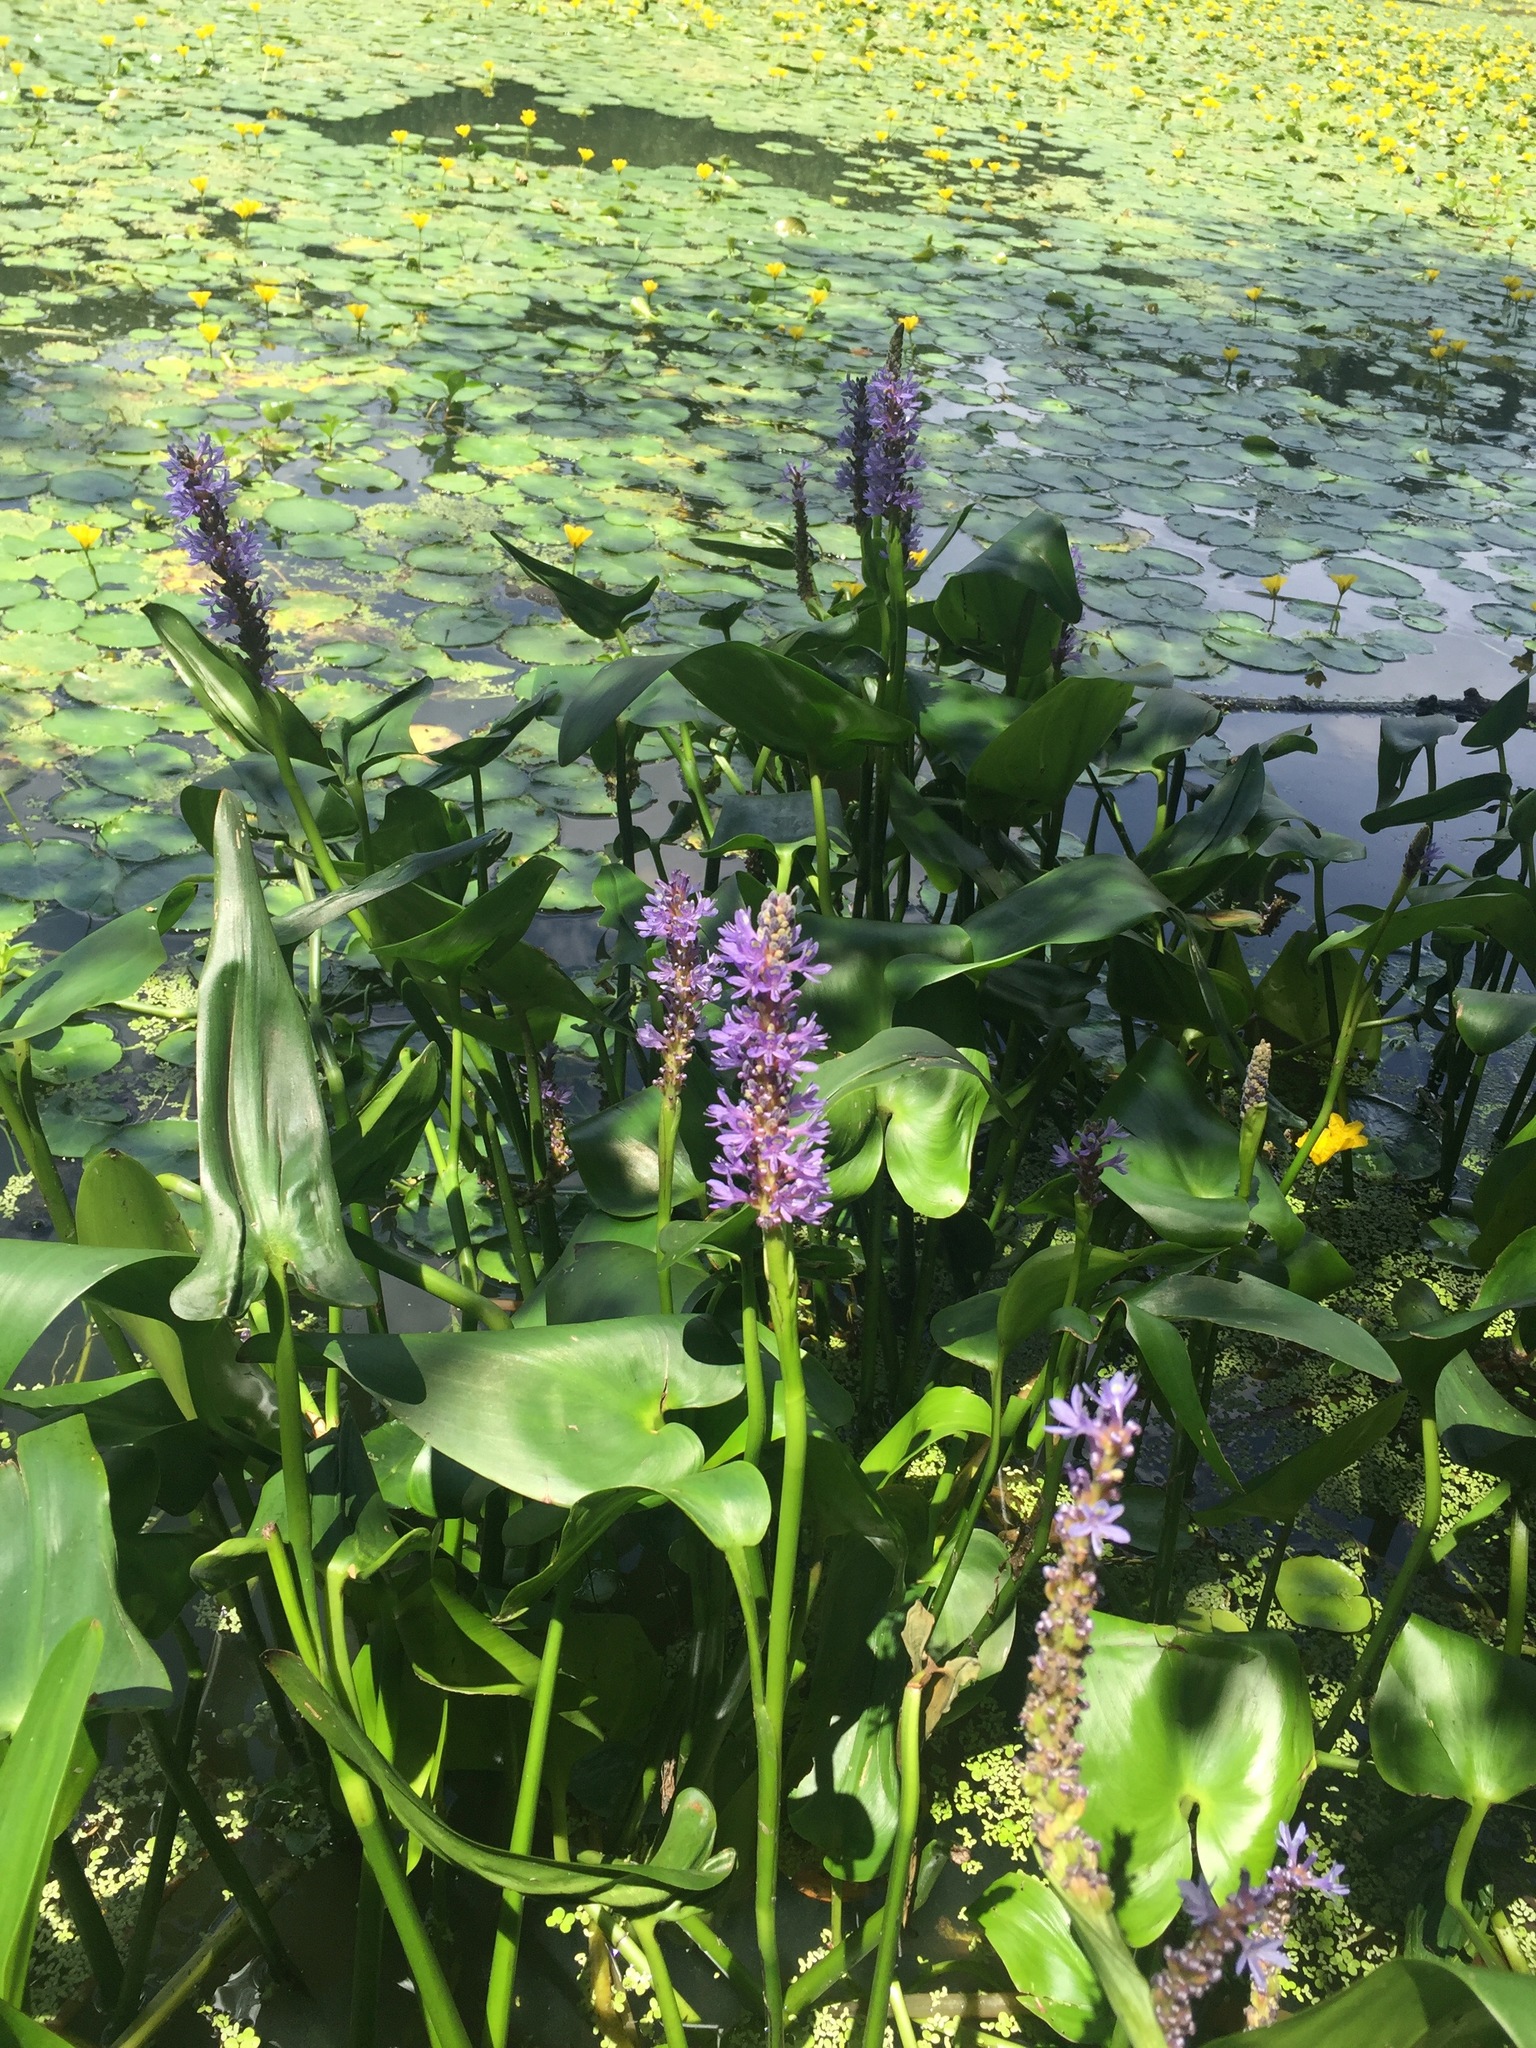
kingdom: Plantae
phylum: Tracheophyta
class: Liliopsida
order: Commelinales
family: Pontederiaceae
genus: Pontederia
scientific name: Pontederia cordata
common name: Pickerelweed
